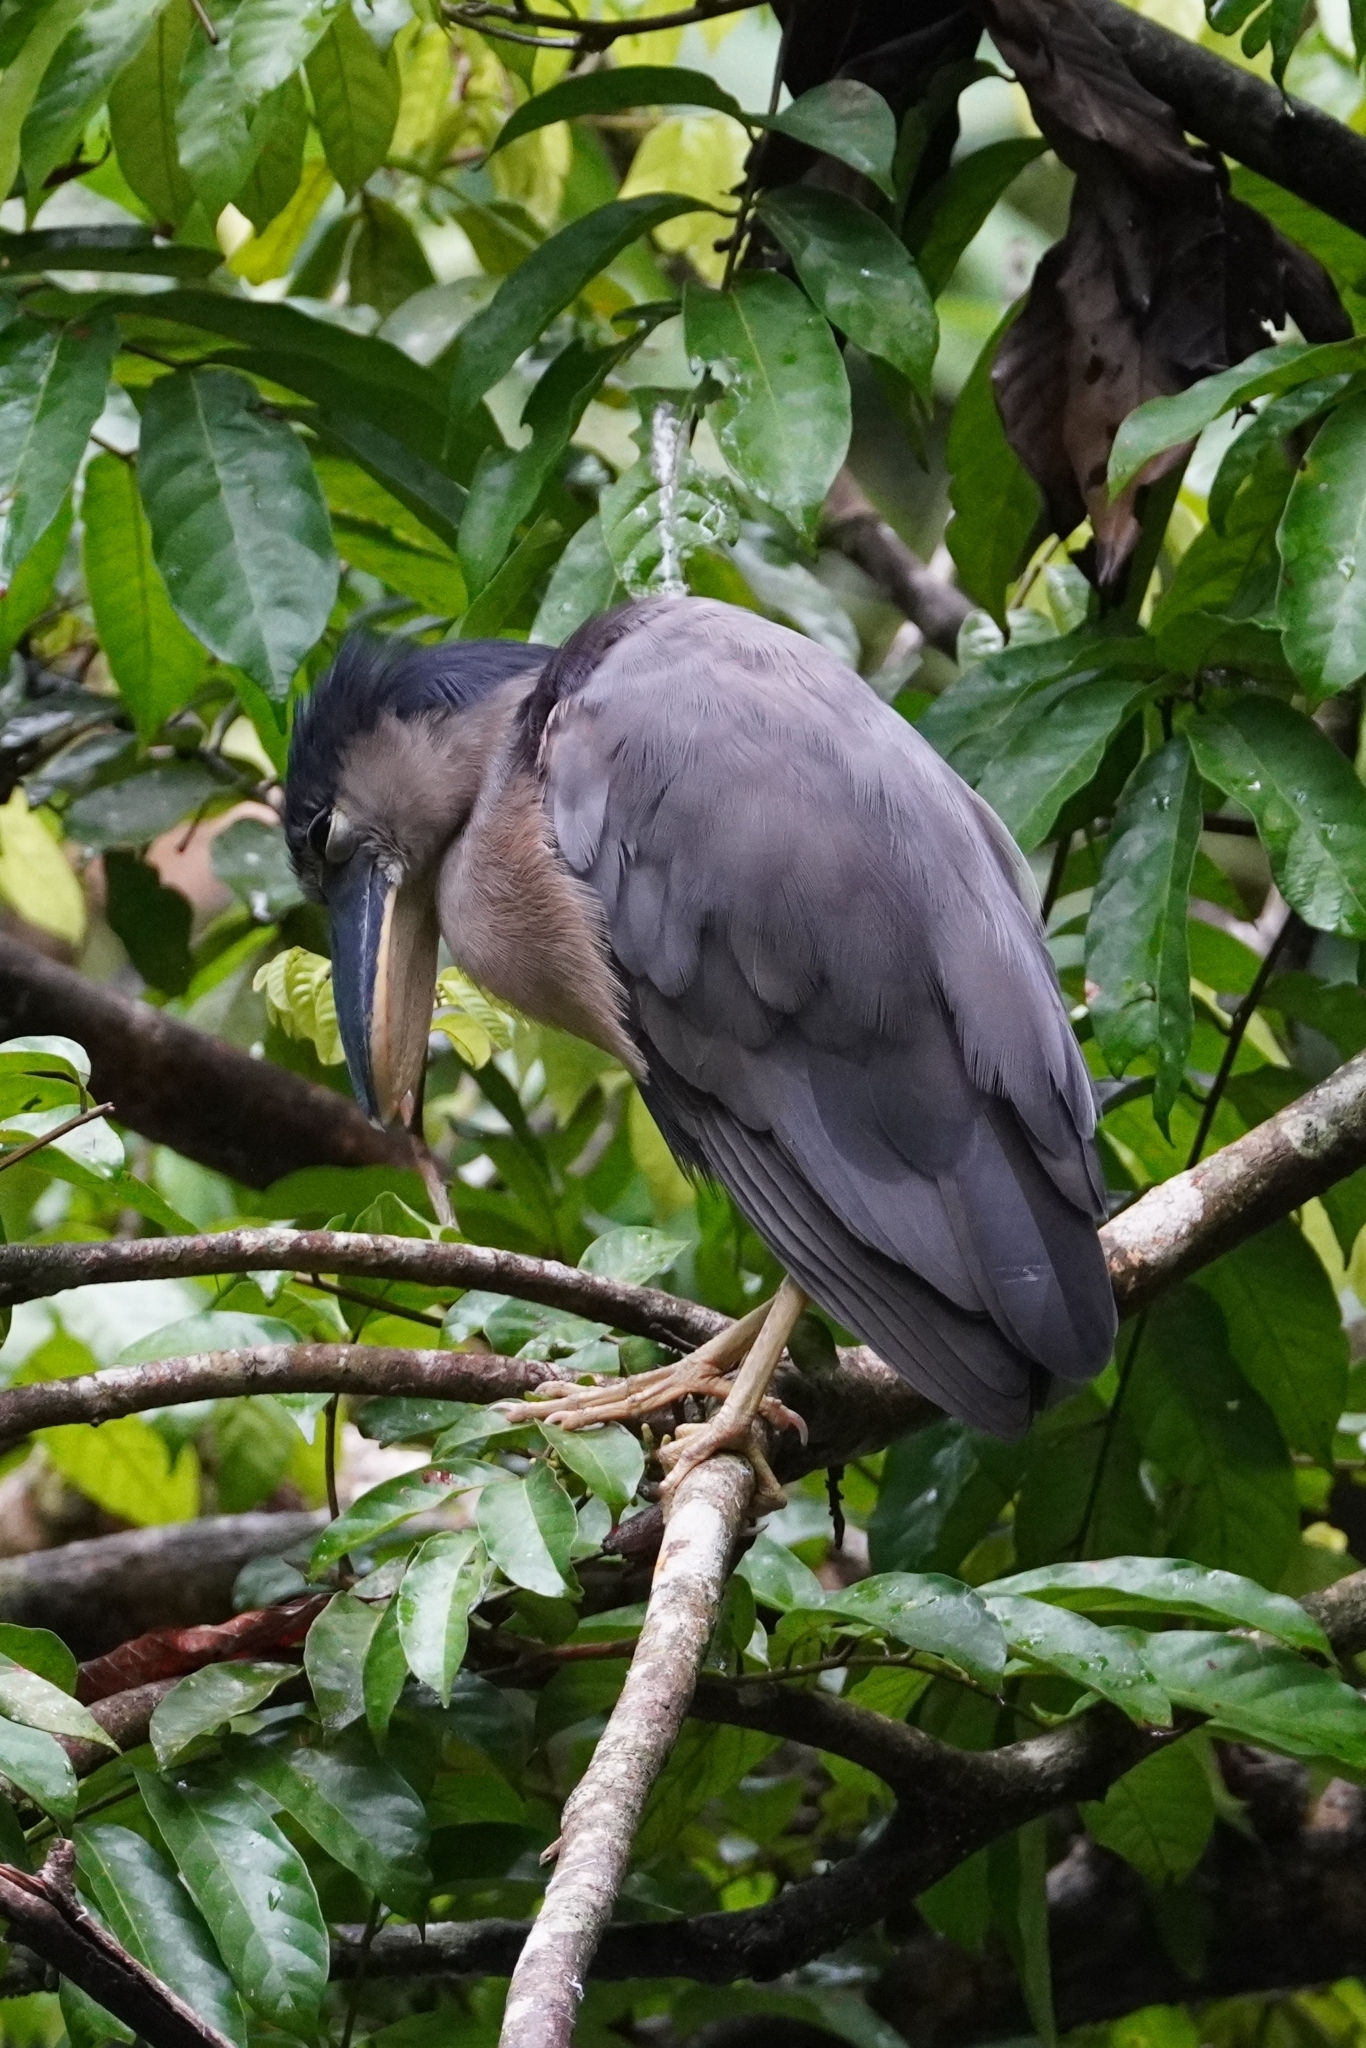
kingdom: Animalia
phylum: Chordata
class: Aves
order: Pelecaniformes
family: Ardeidae
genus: Cochlearius
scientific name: Cochlearius cochlearius
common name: Boat-billed heron
